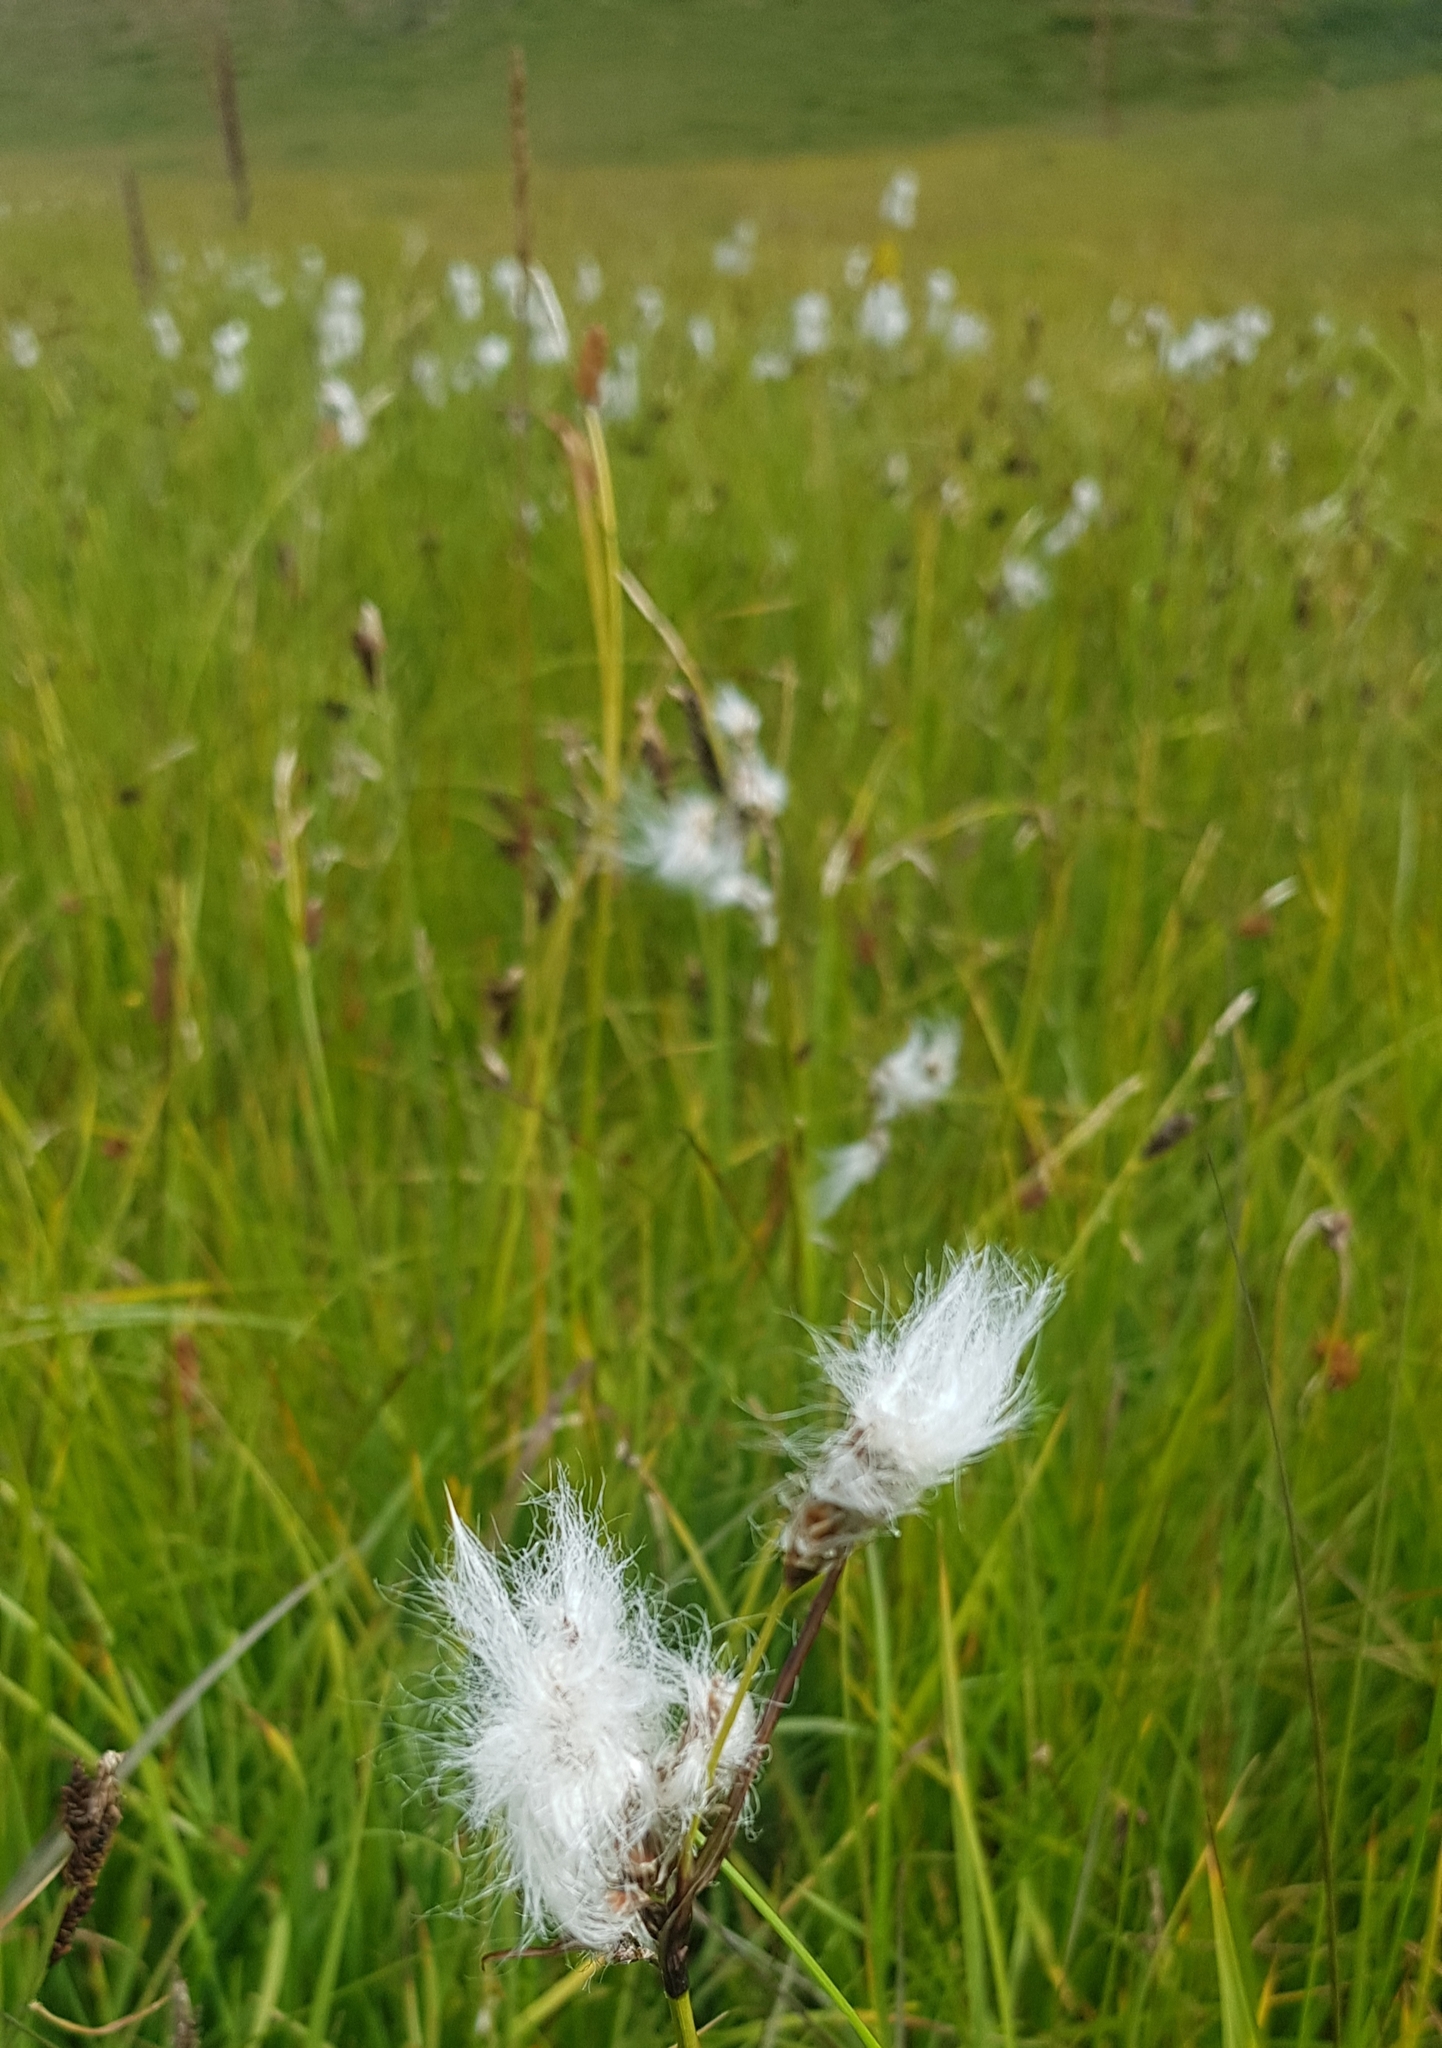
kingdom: Plantae
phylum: Tracheophyta
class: Liliopsida
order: Poales
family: Cyperaceae
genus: Eriophorum
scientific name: Eriophorum angustifolium
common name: Common cottongrass
